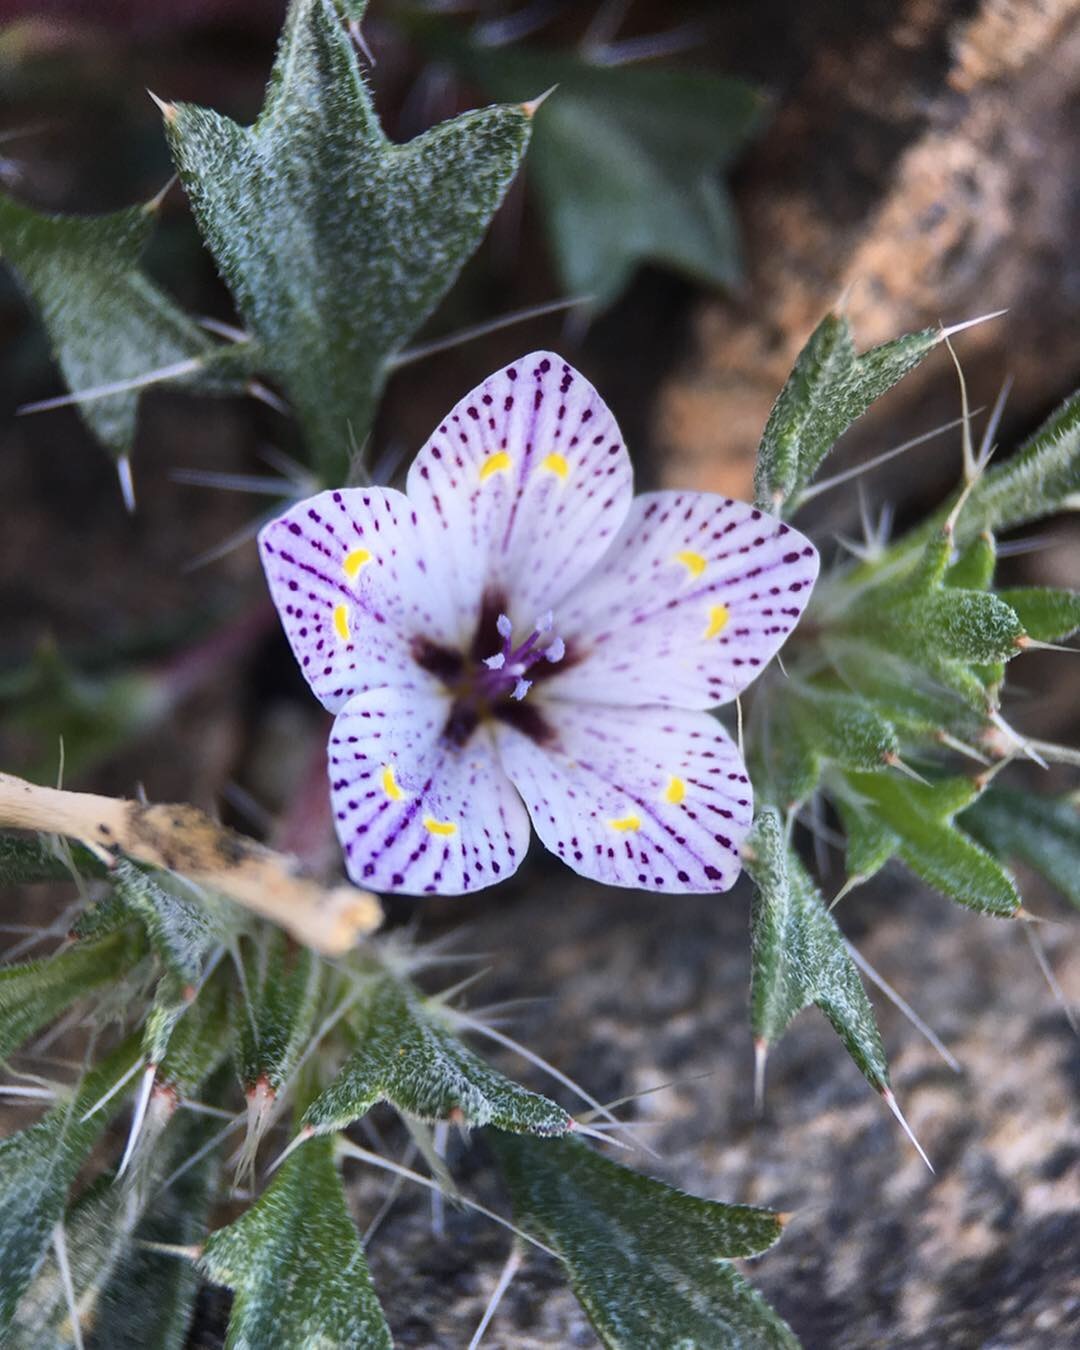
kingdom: Plantae
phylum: Tracheophyta
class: Magnoliopsida
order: Ericales
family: Polemoniaceae
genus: Langloisia
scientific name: Langloisia setosissima
